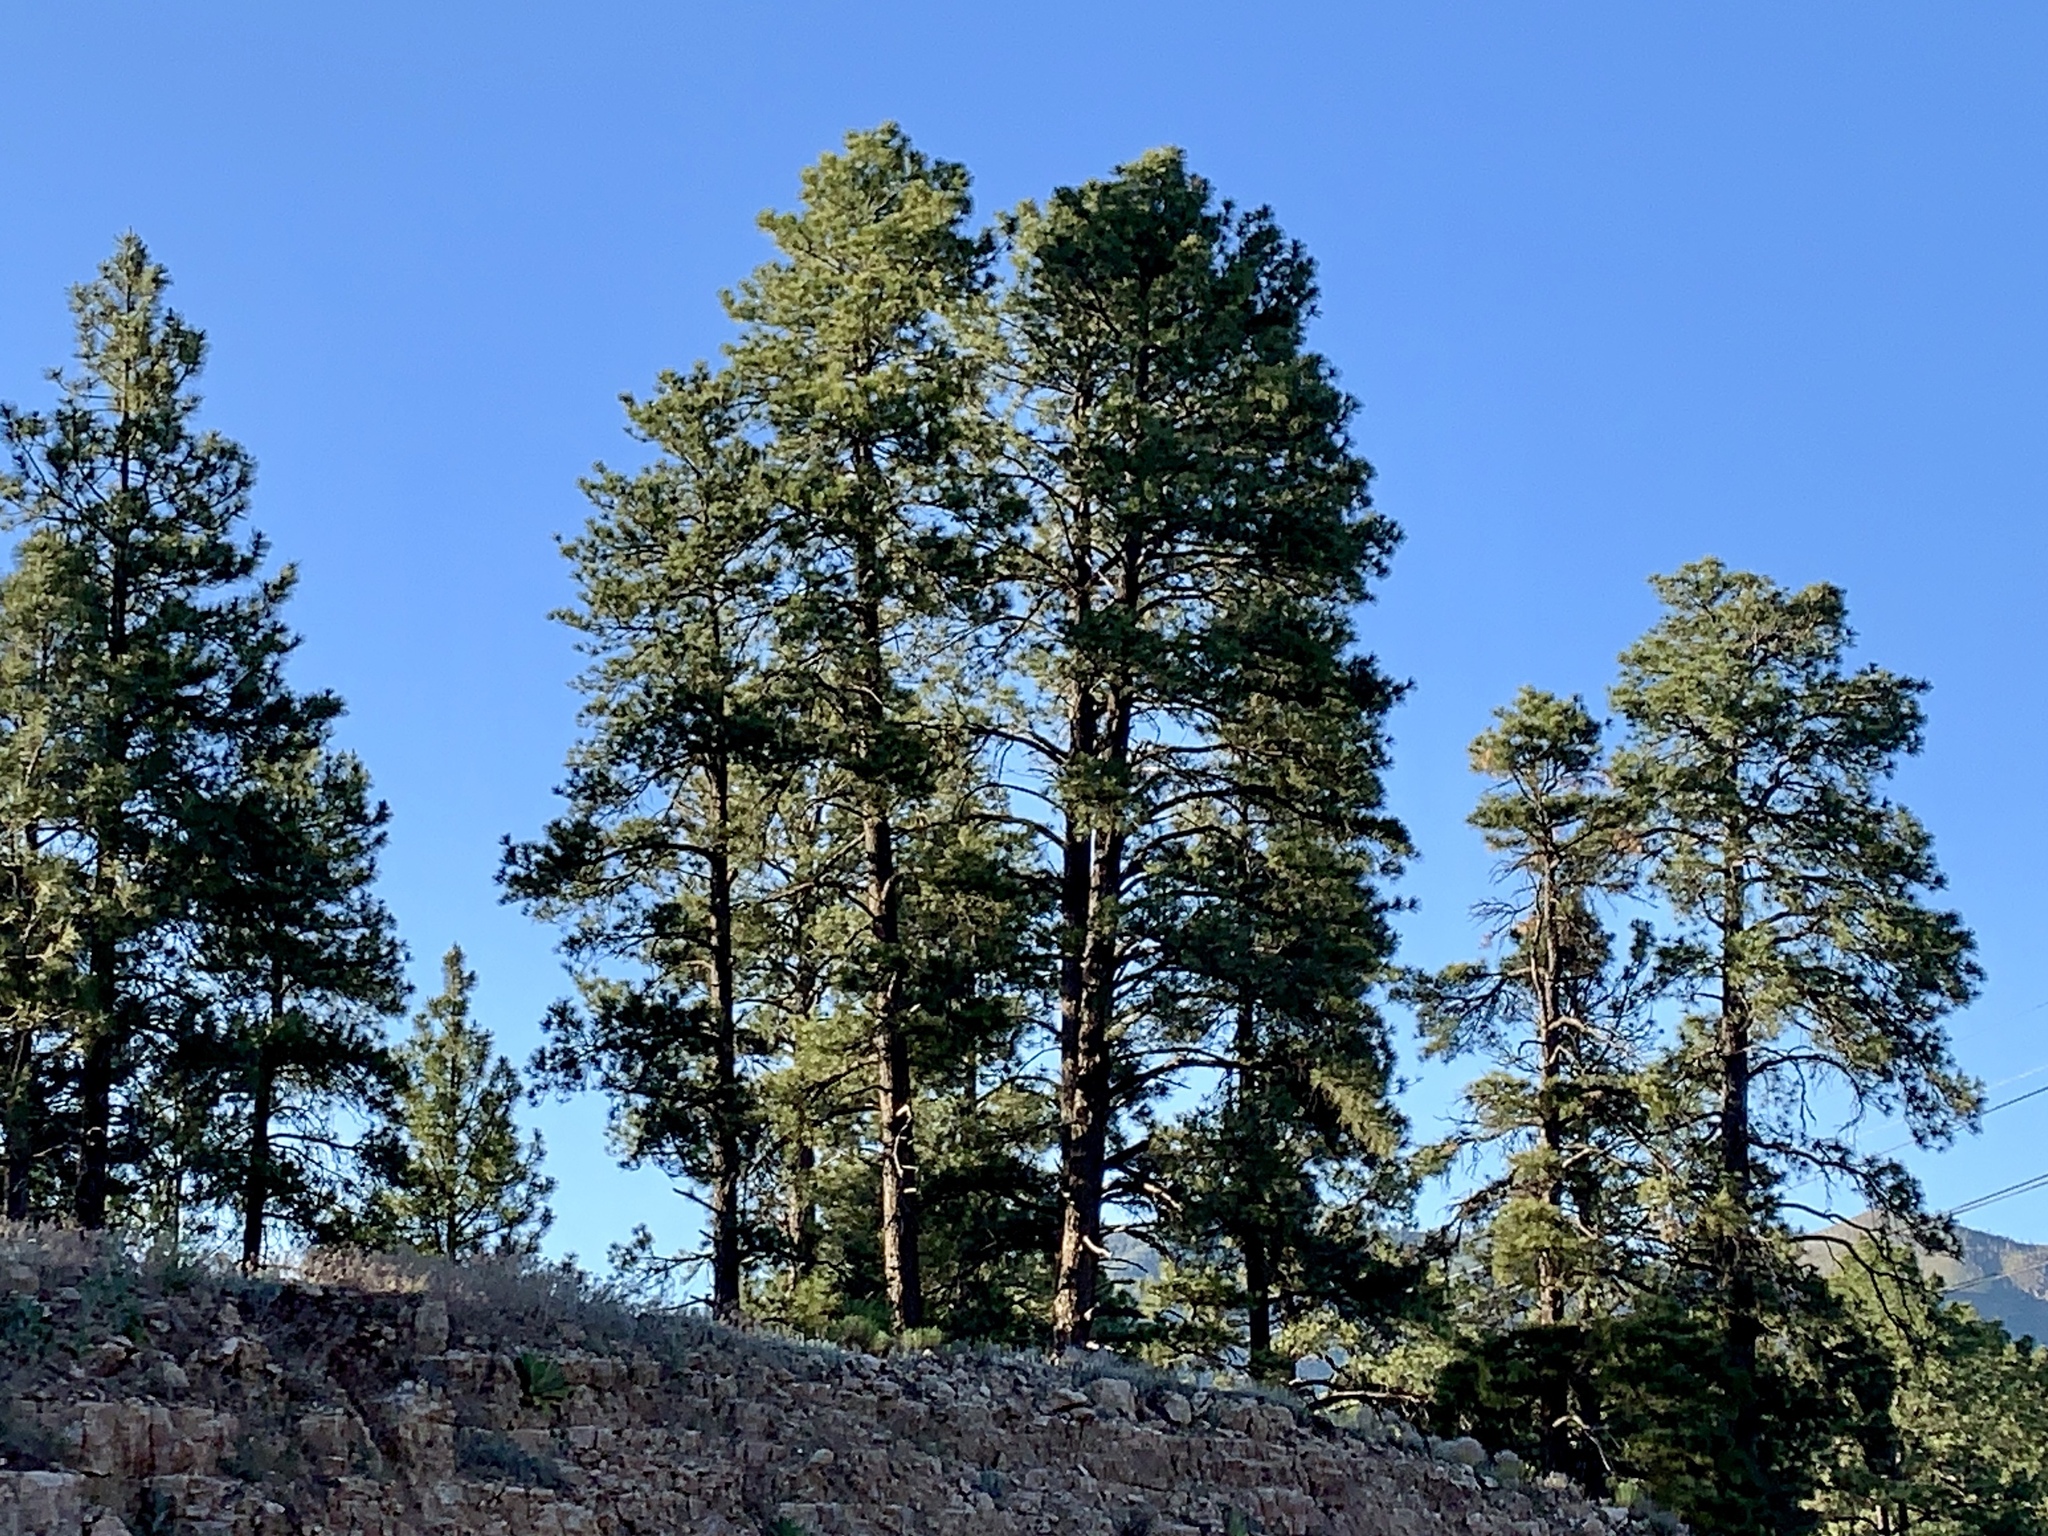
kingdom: Plantae
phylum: Tracheophyta
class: Pinopsida
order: Pinales
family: Pinaceae
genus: Pinus
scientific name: Pinus ponderosa
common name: Western yellow-pine
